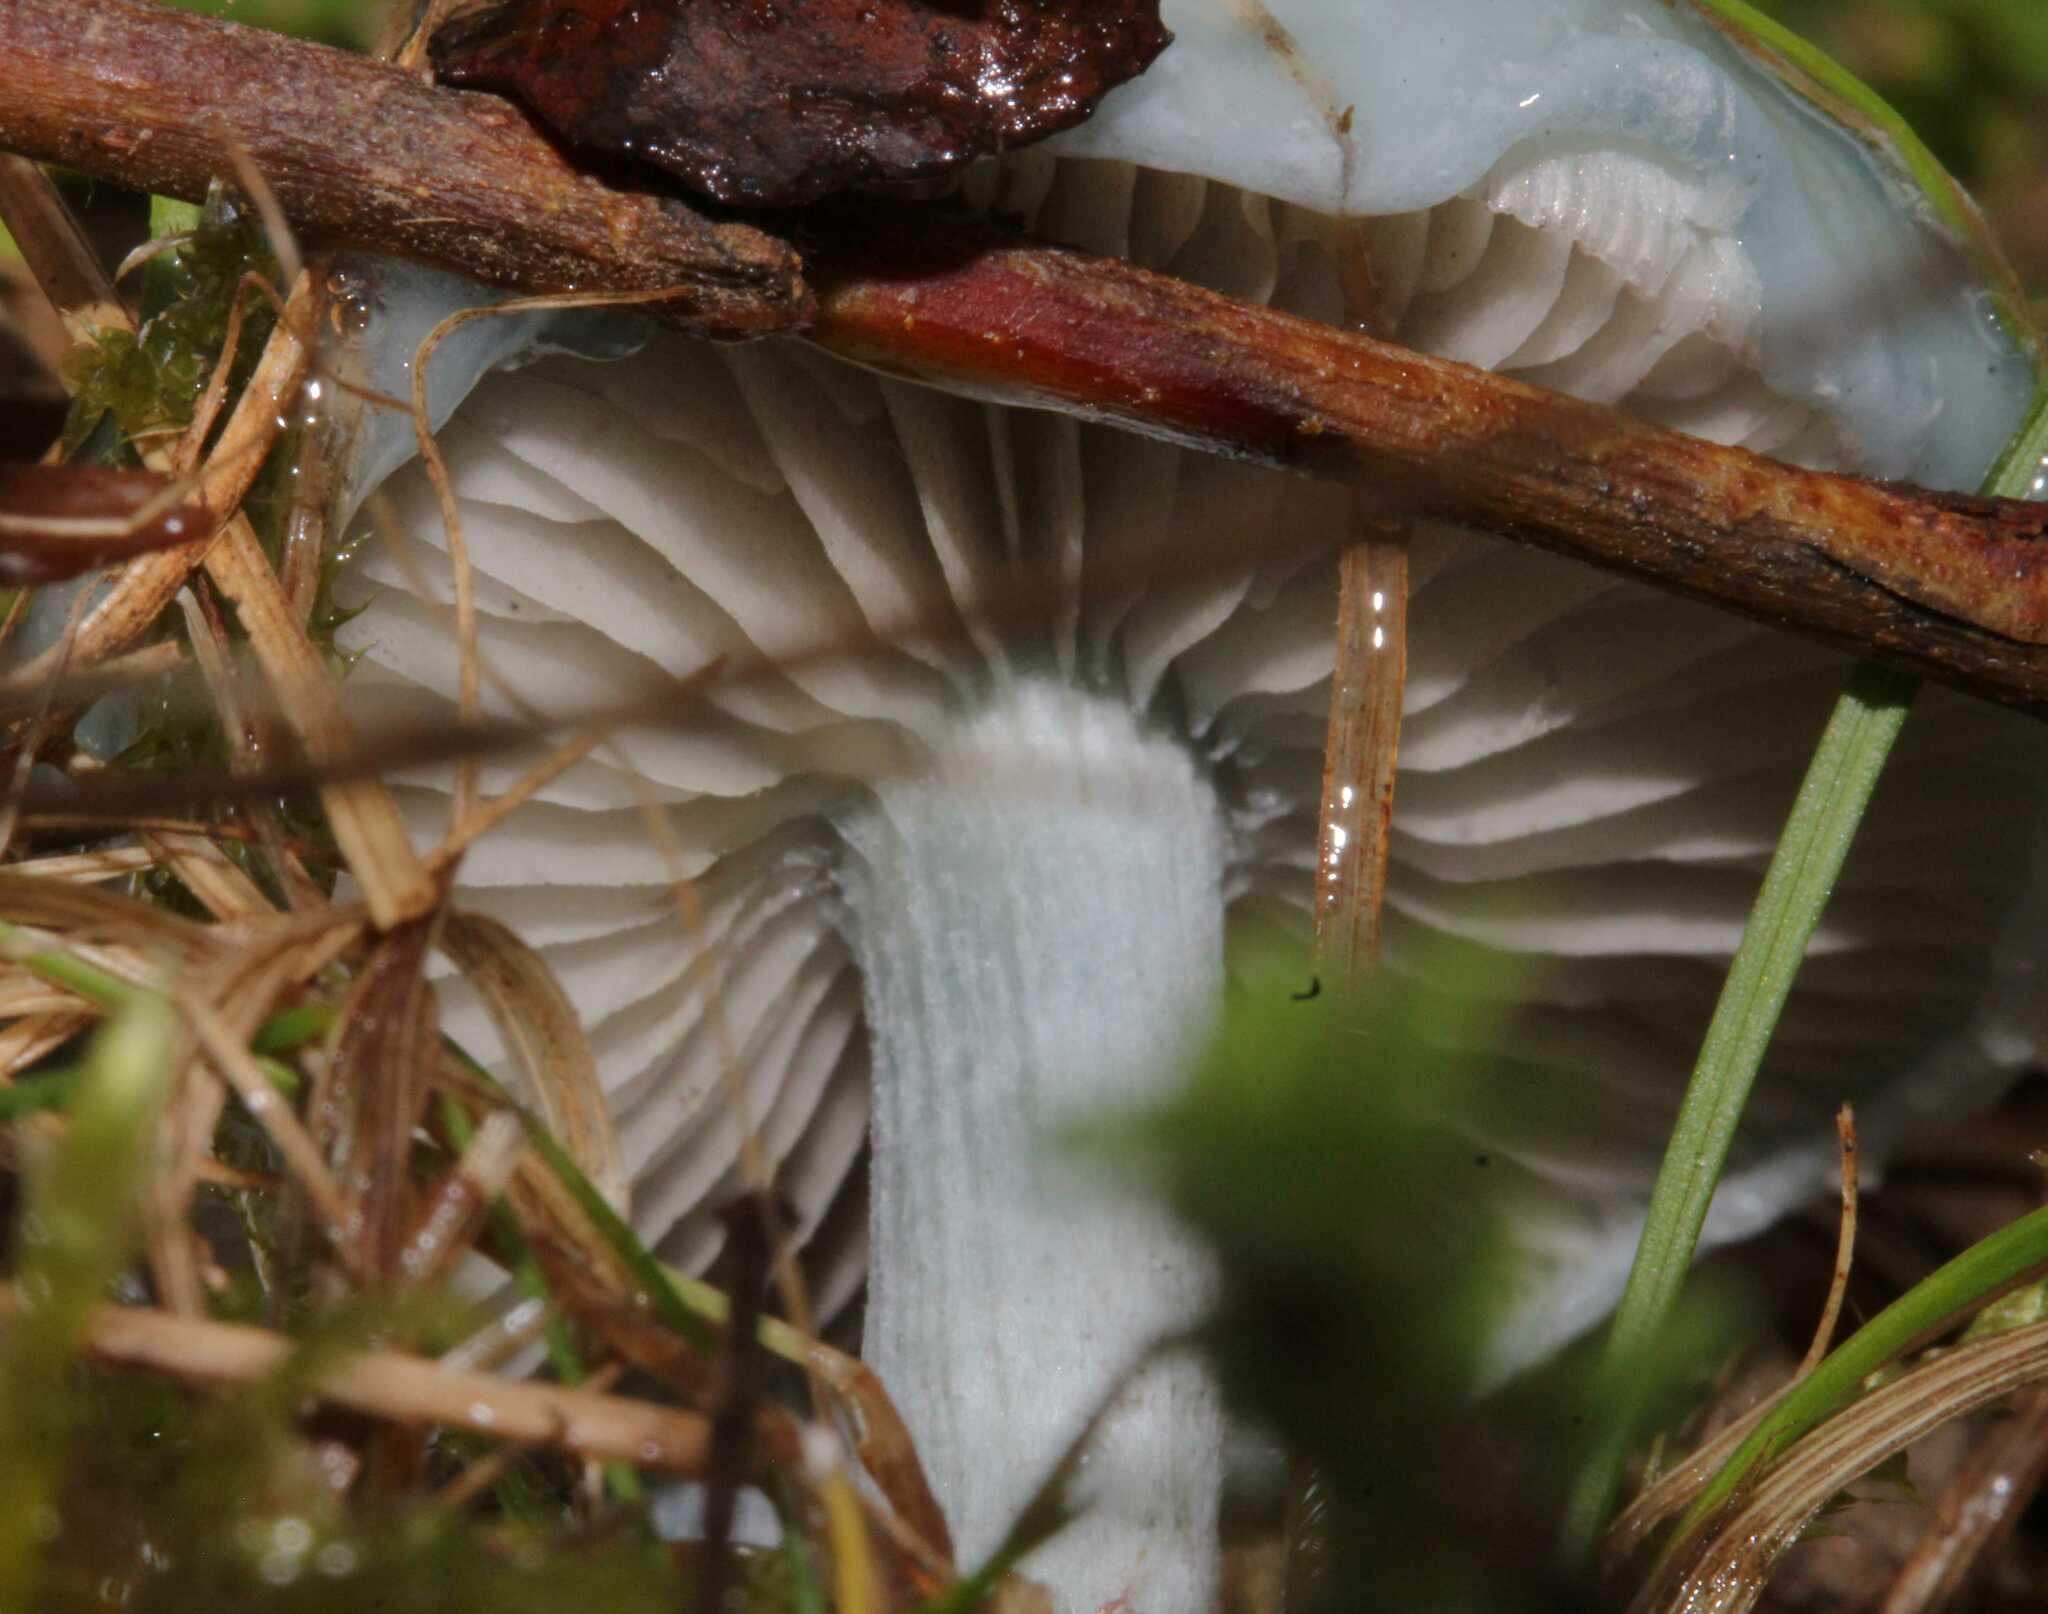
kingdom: Fungi
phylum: Basidiomycota
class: Agaricomycetes
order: Agaricales
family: Strophariaceae
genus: Stropharia
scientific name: Stropharia caerulea
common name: Blue roundhead
